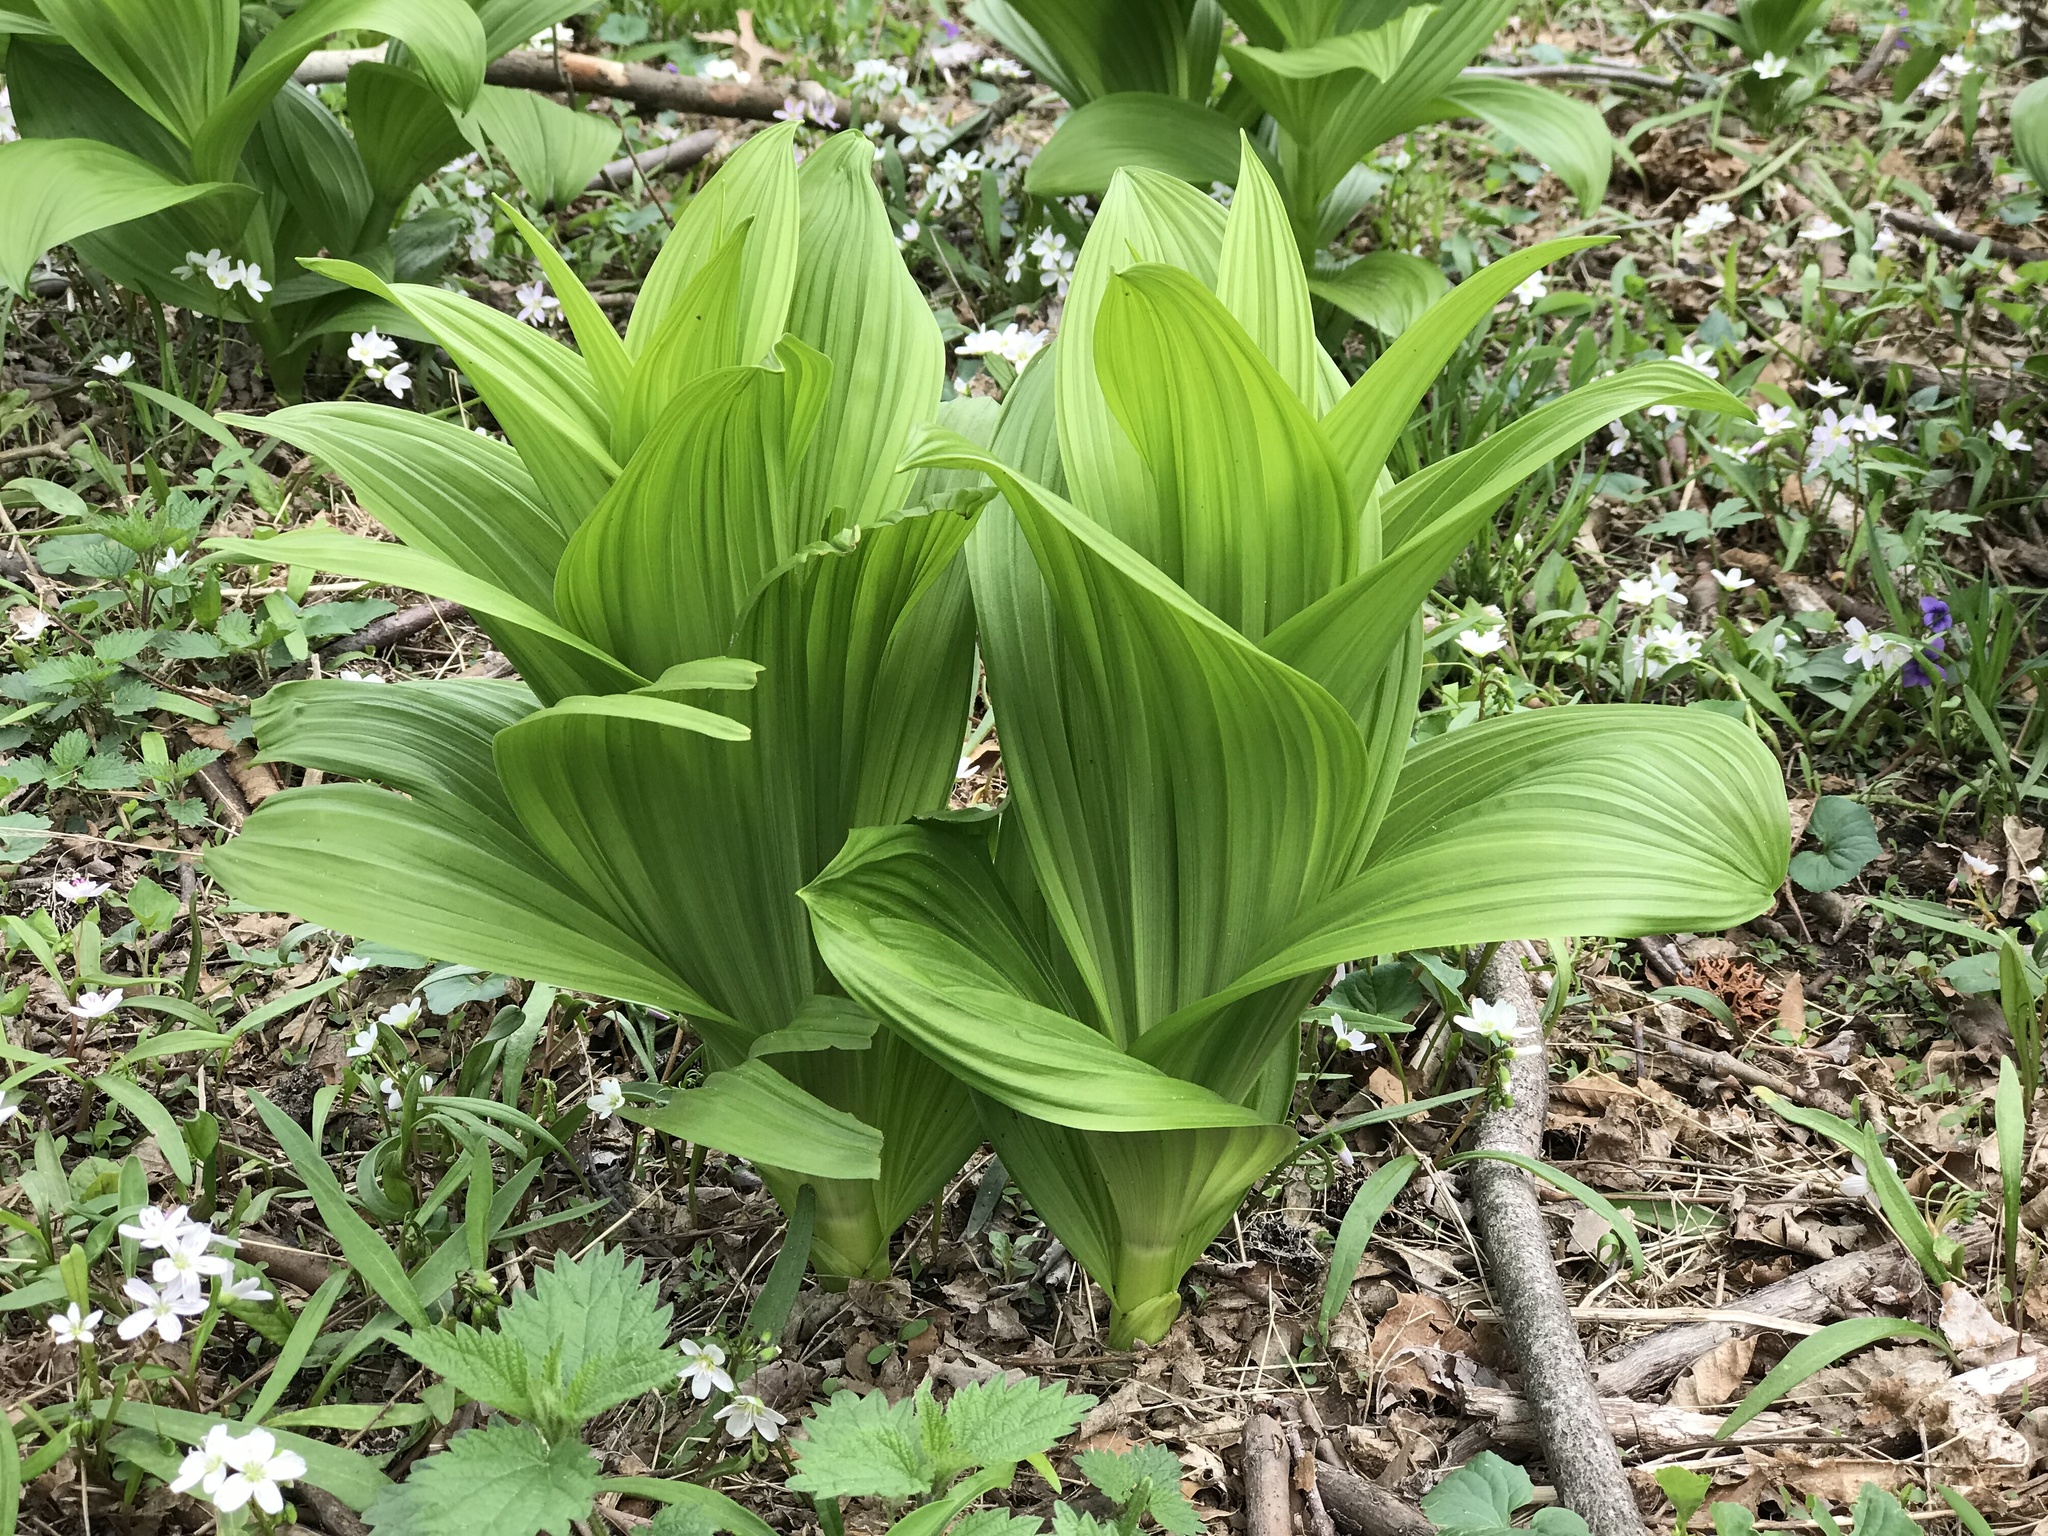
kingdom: Plantae
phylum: Tracheophyta
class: Liliopsida
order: Liliales
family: Melanthiaceae
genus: Veratrum
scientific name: Veratrum viride
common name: American false hellebore
